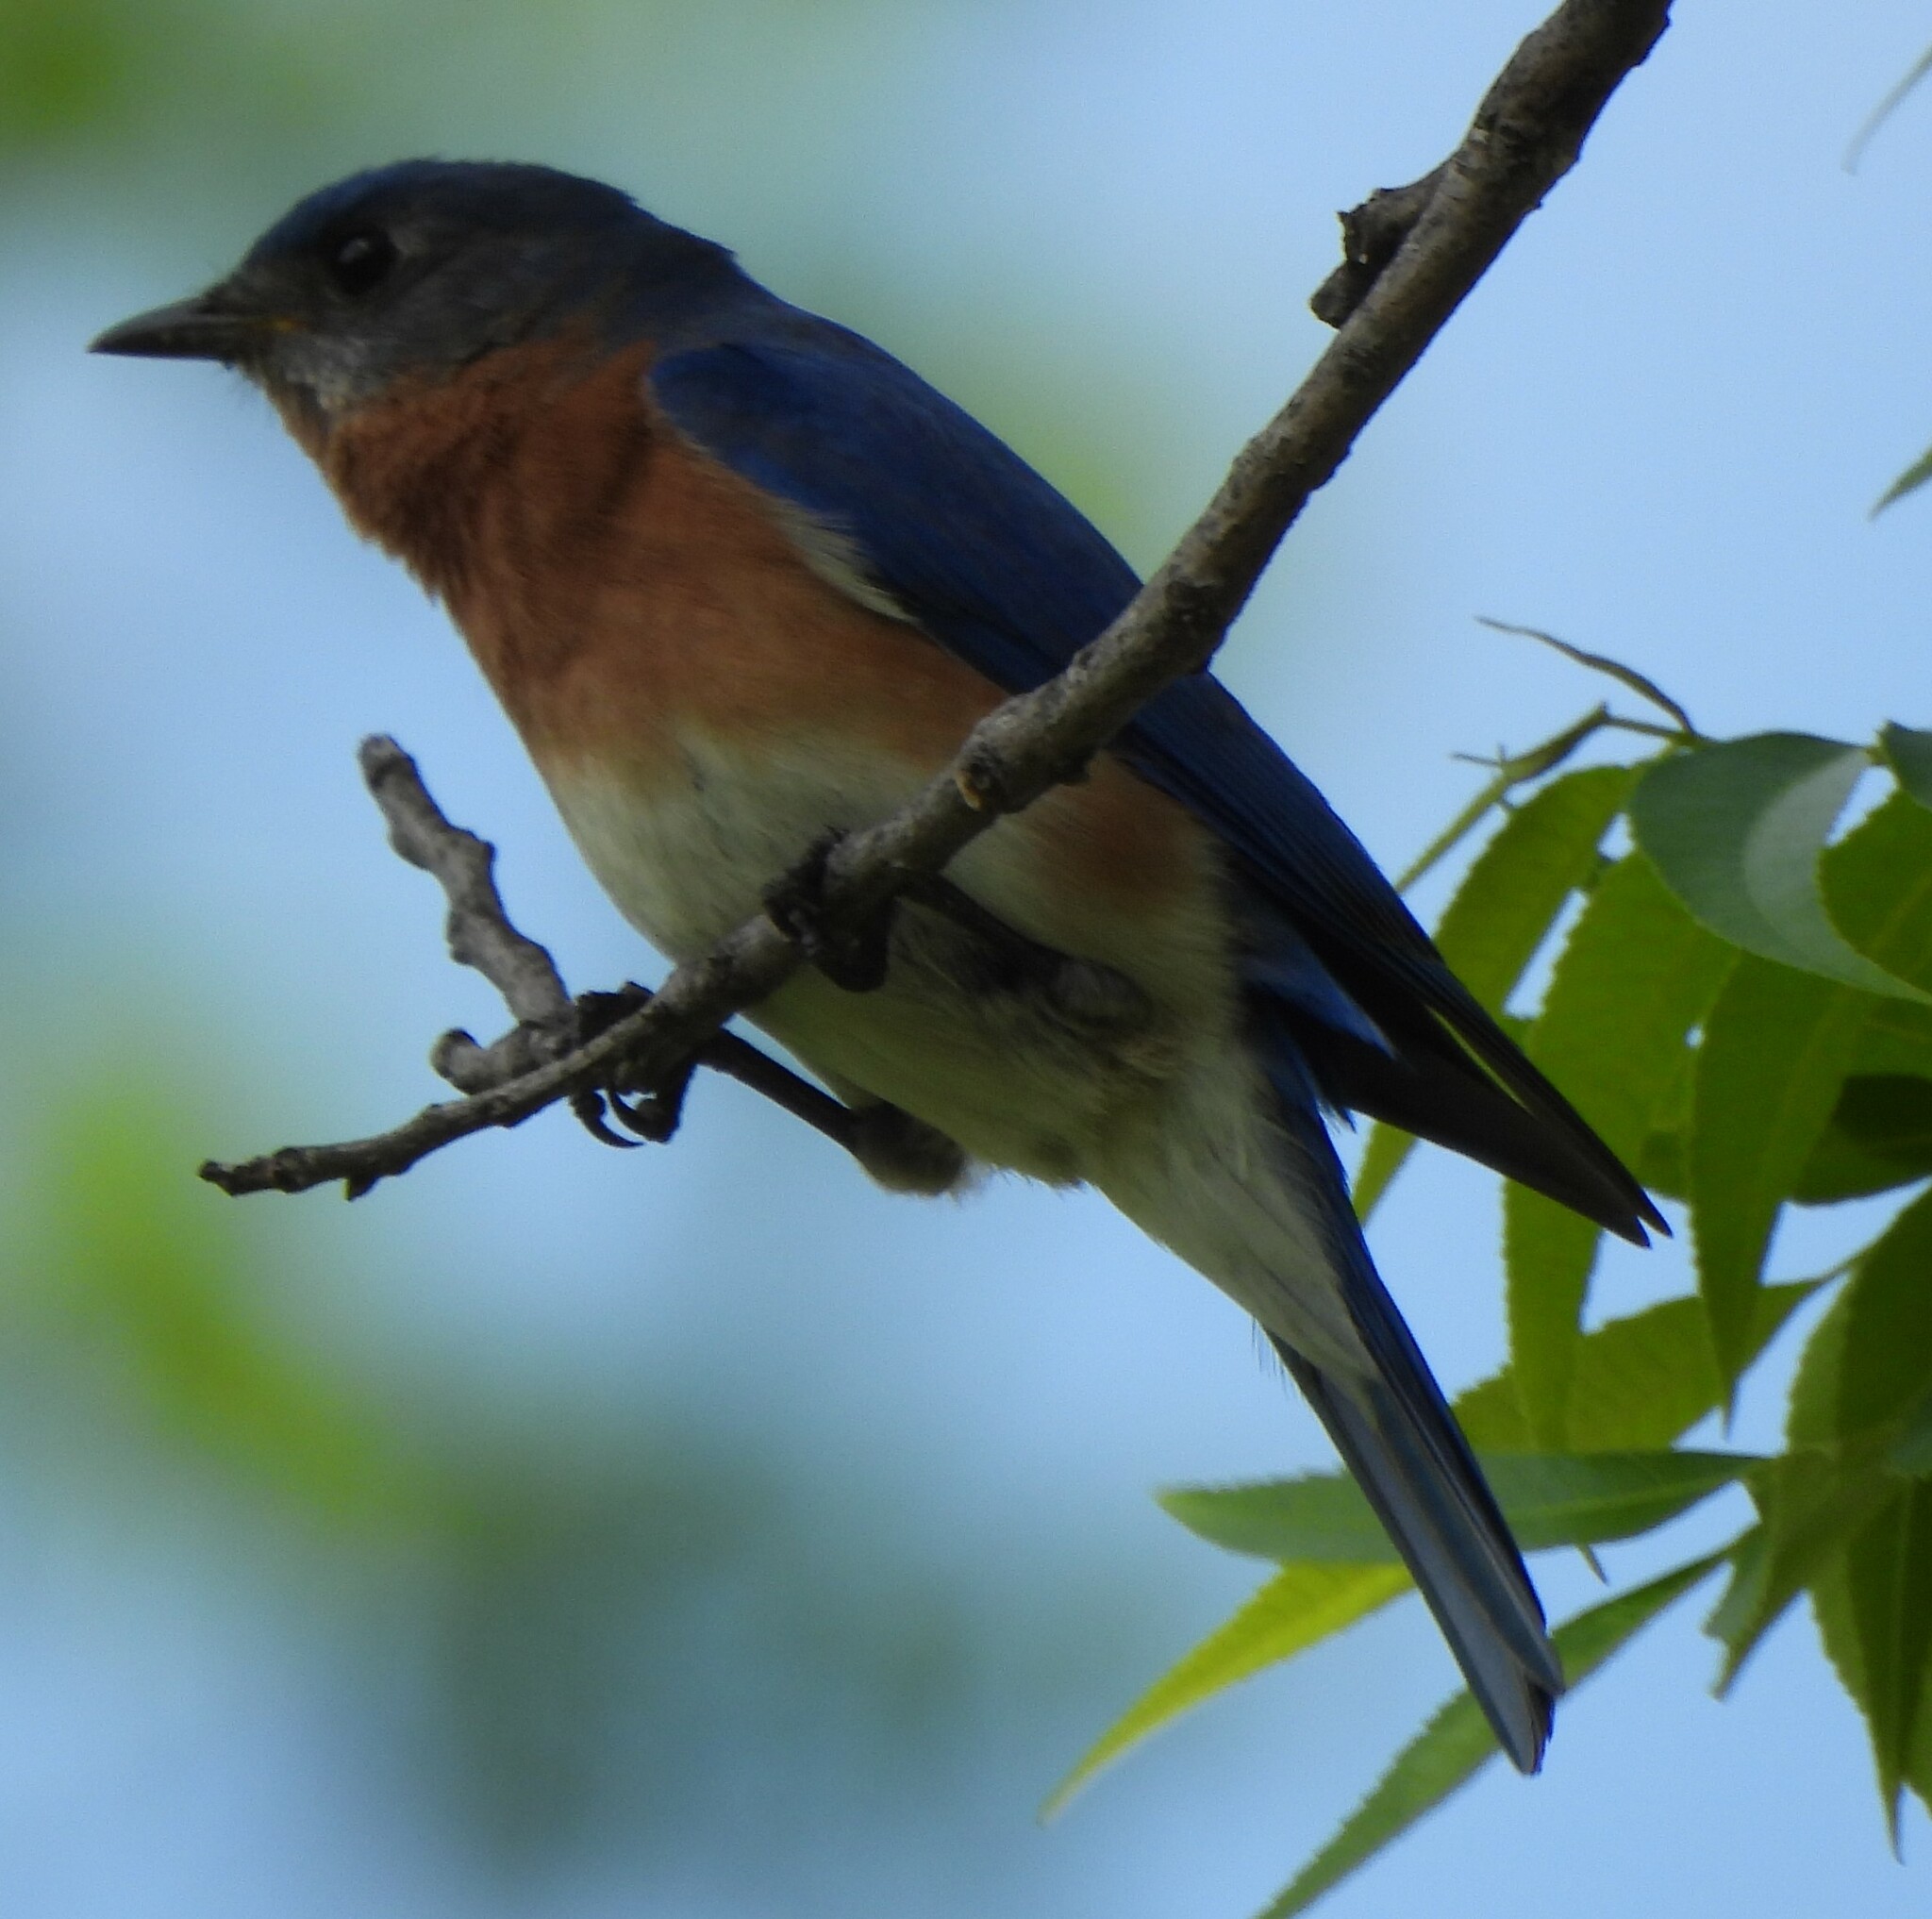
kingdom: Animalia
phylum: Chordata
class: Aves
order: Passeriformes
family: Turdidae
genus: Sialia
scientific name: Sialia sialis
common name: Eastern bluebird
